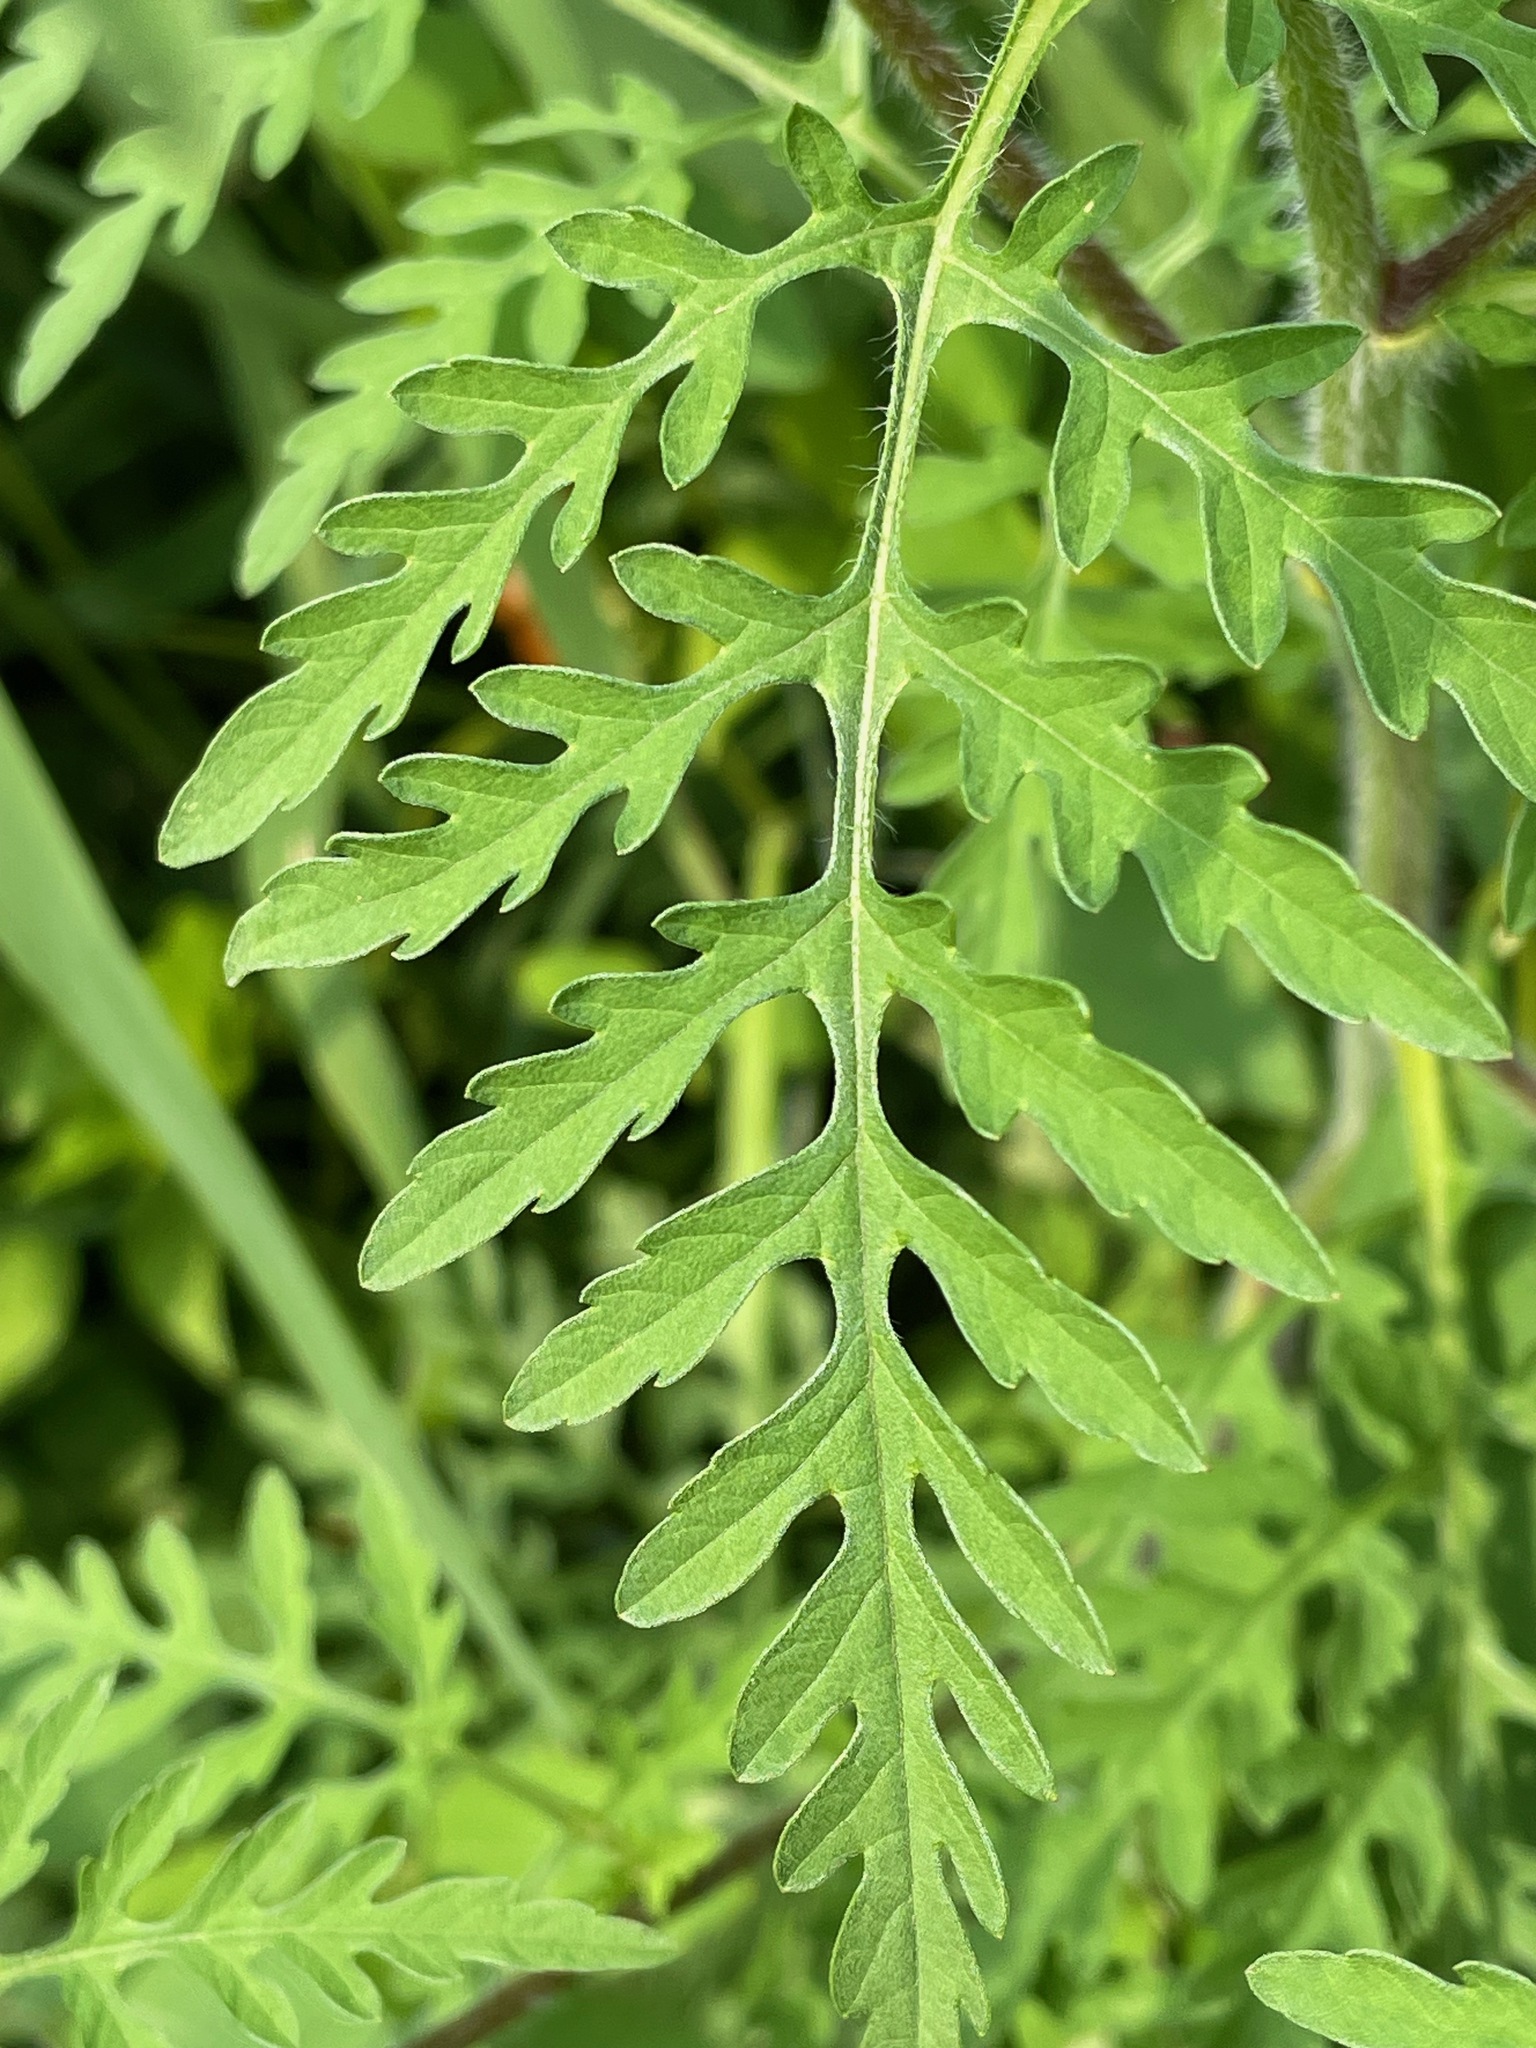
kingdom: Plantae
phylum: Tracheophyta
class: Magnoliopsida
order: Asterales
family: Asteraceae
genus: Ambrosia
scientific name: Ambrosia artemisiifolia
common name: Annual ragweed
